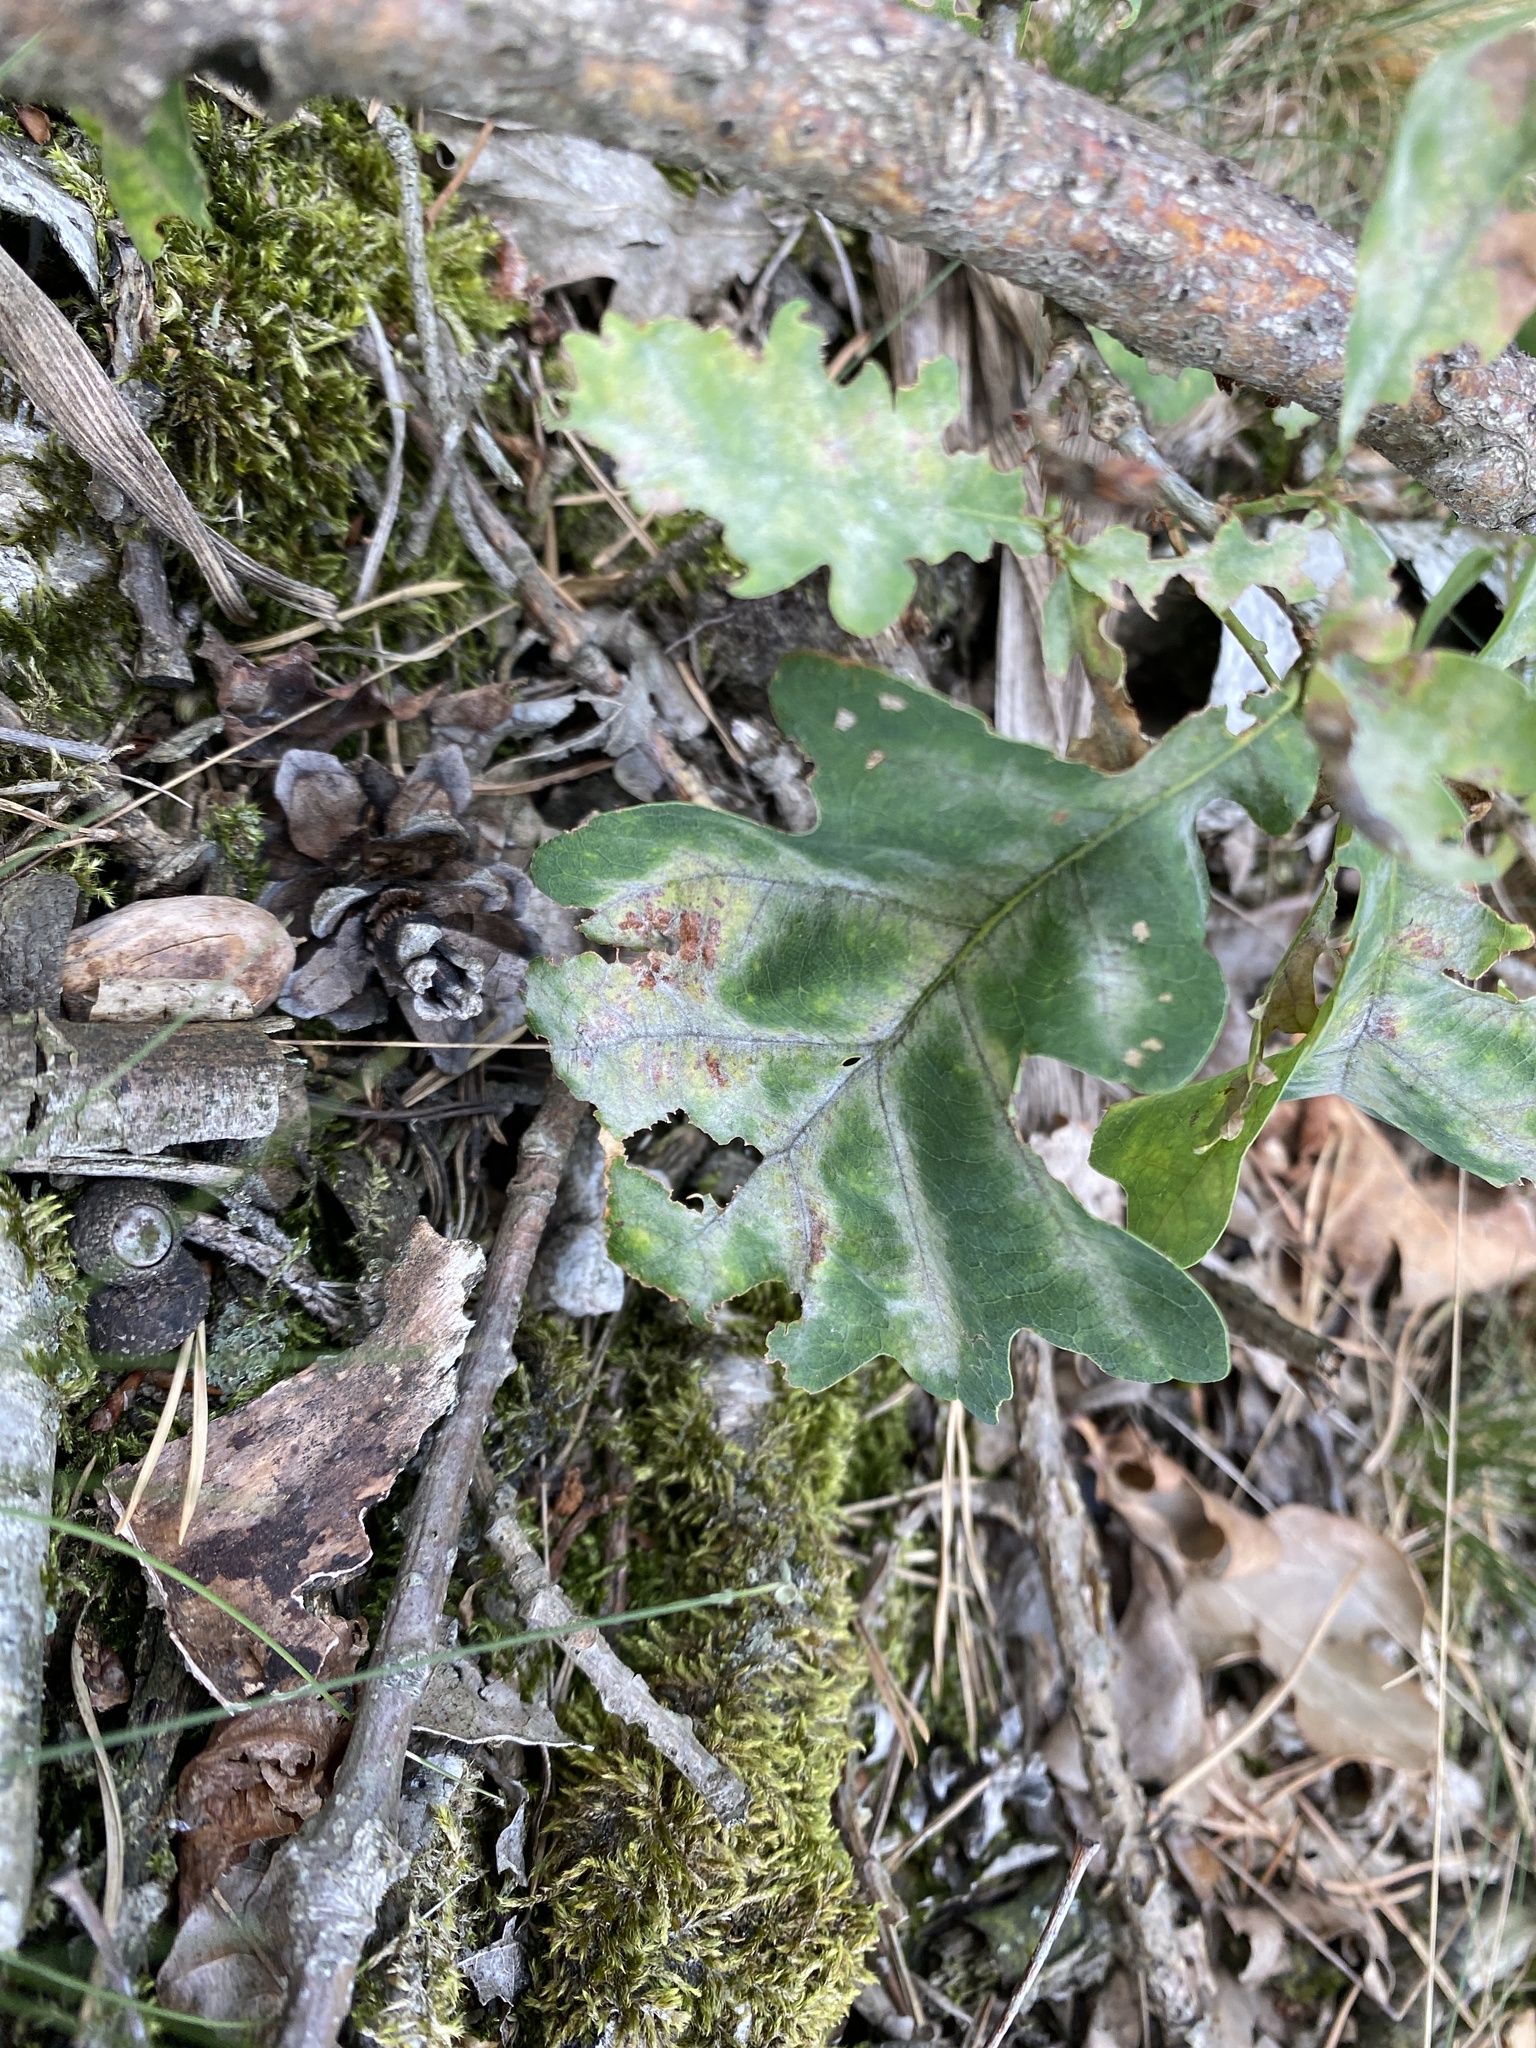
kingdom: Fungi
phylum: Ascomycota
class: Leotiomycetes
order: Helotiales
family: Erysiphaceae
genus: Erysiphe
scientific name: Erysiphe
